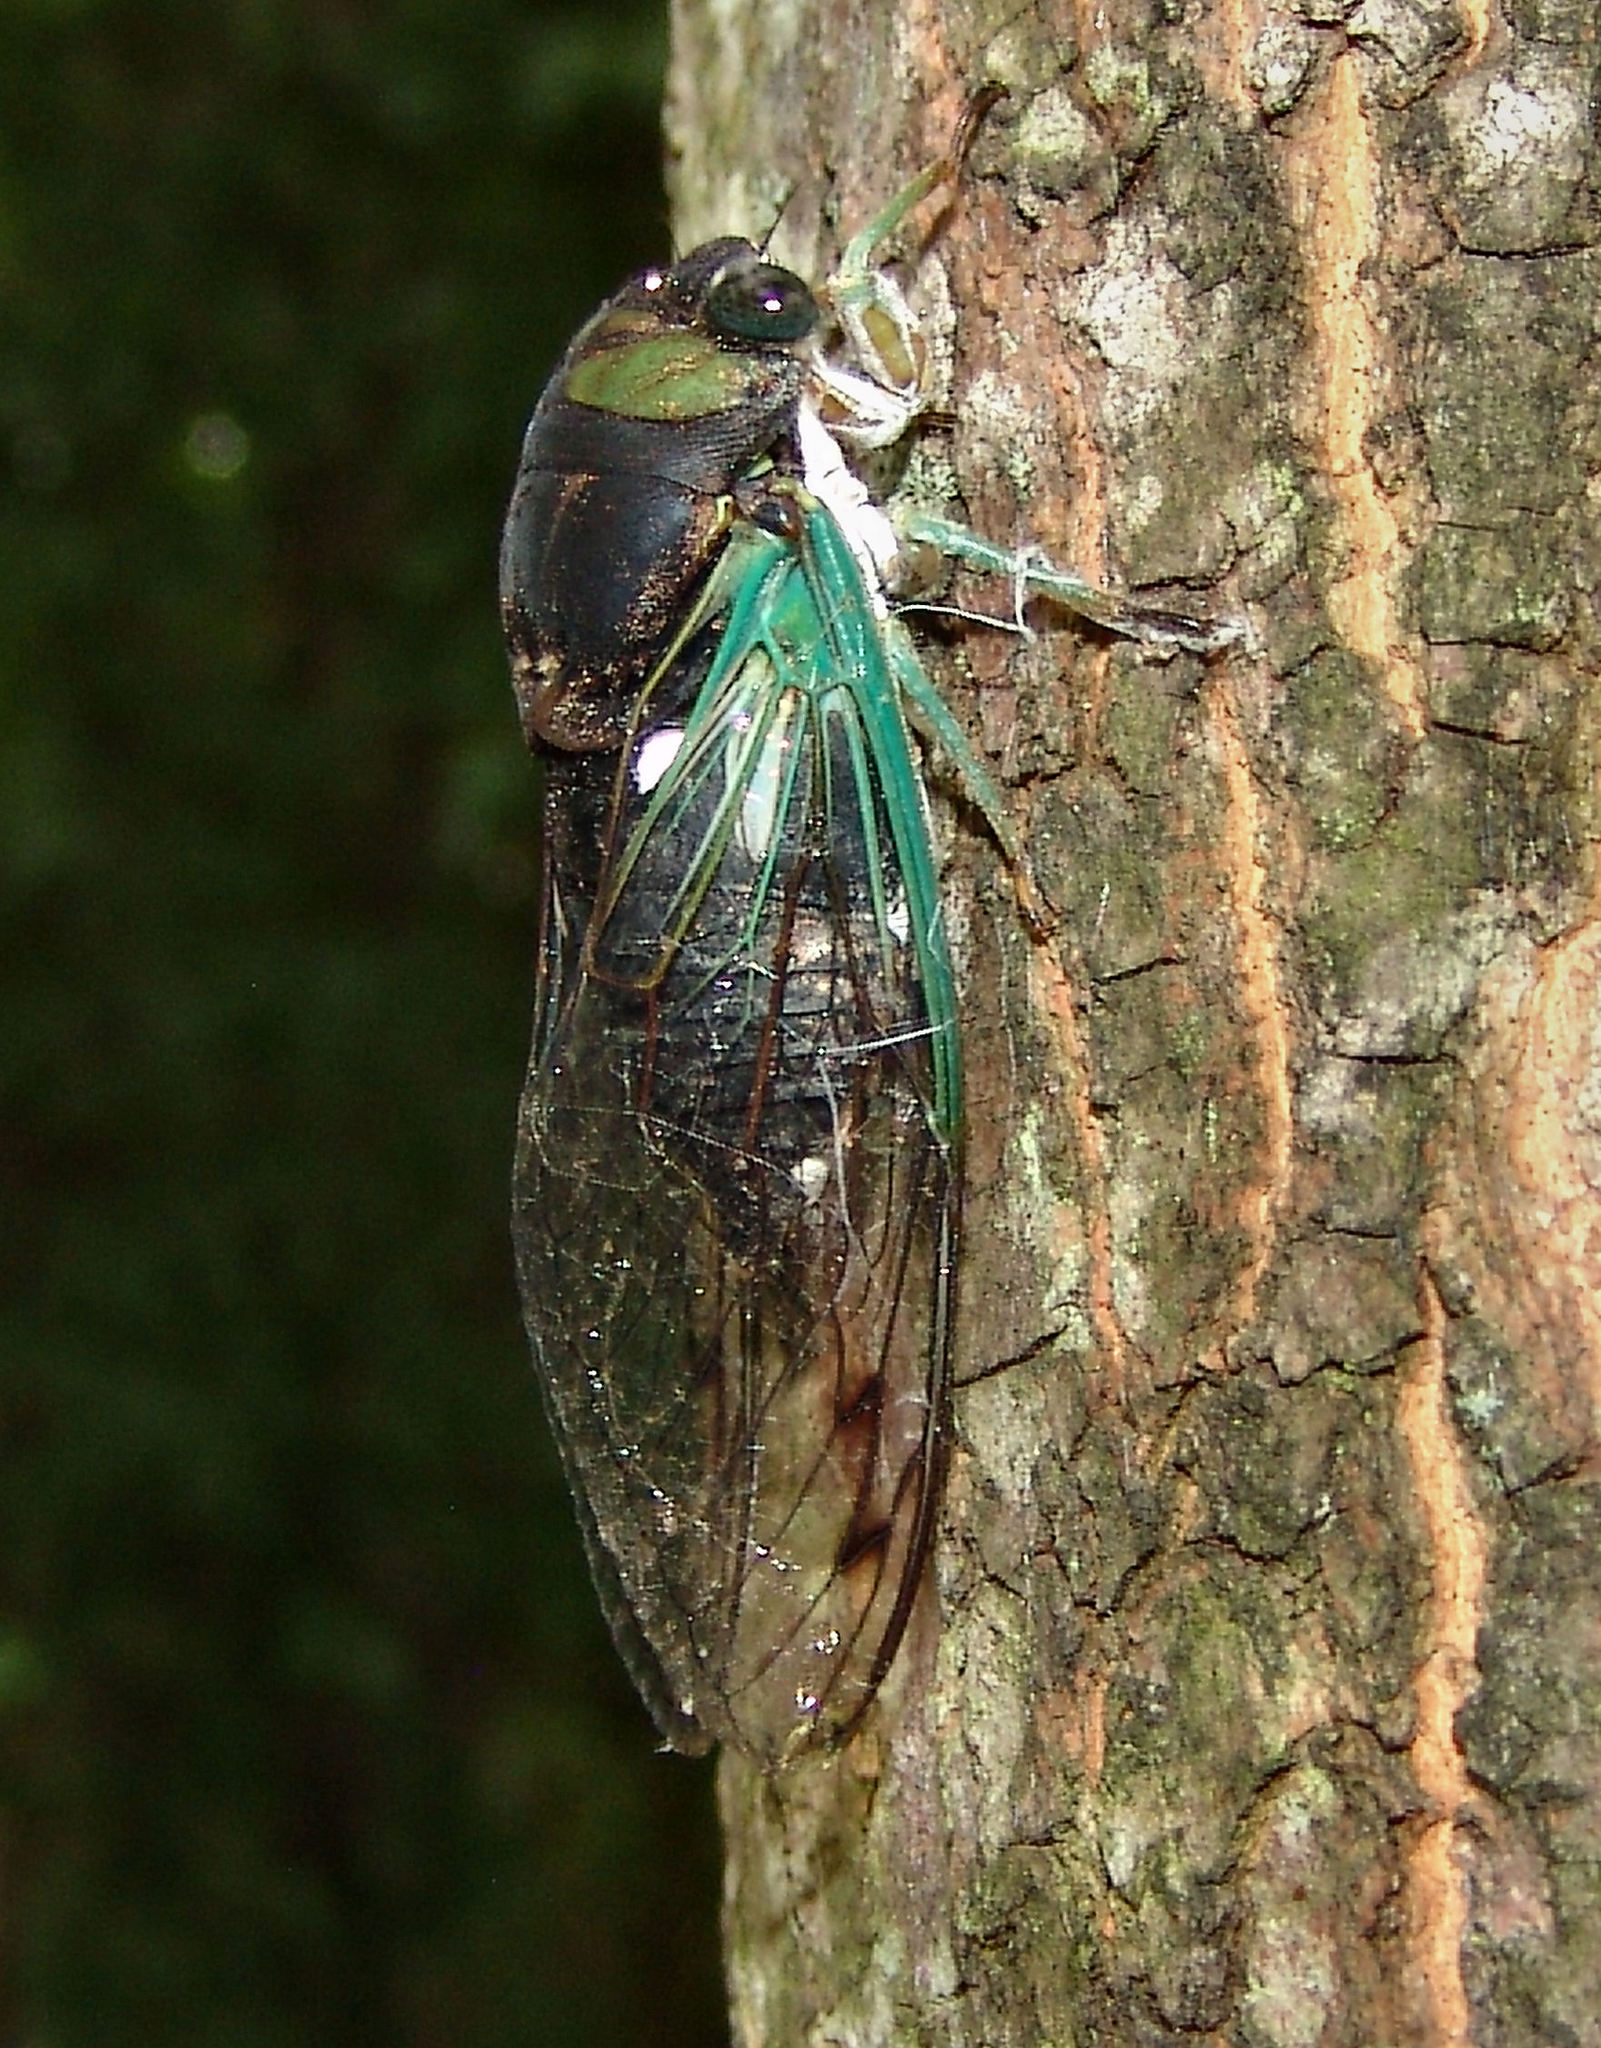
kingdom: Animalia
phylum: Arthropoda
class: Insecta
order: Hemiptera
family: Cicadidae
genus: Neotibicen
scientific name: Neotibicen tibicen
